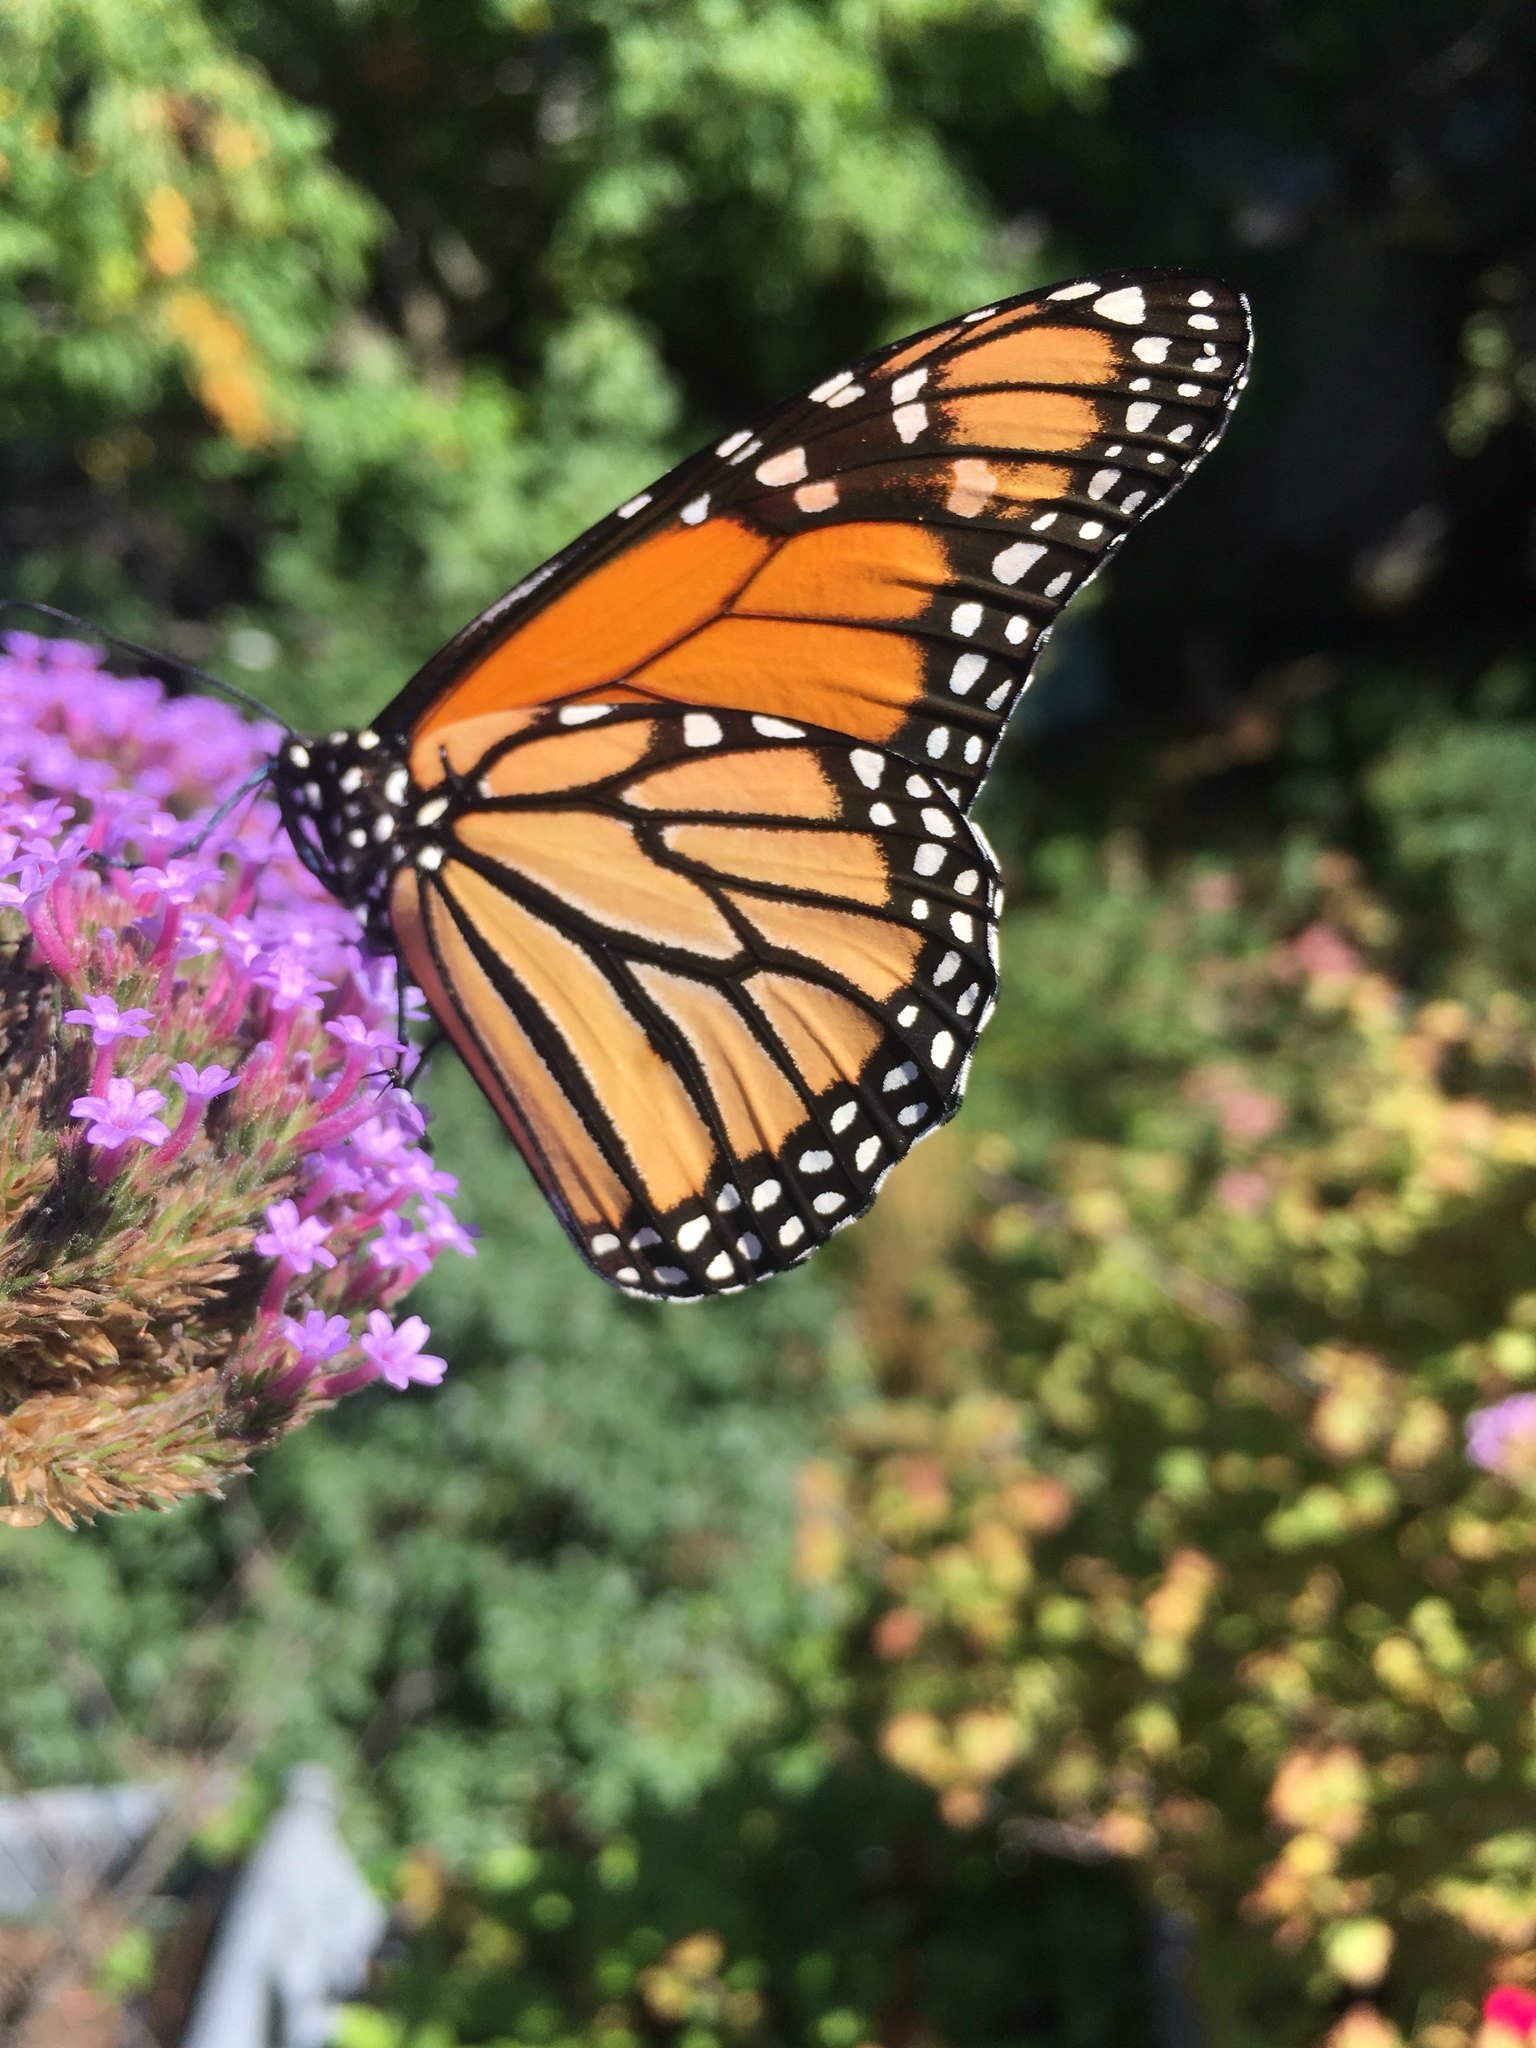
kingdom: Animalia
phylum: Arthropoda
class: Insecta
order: Lepidoptera
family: Nymphalidae
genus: Danaus
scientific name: Danaus plexippus
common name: Monarch
